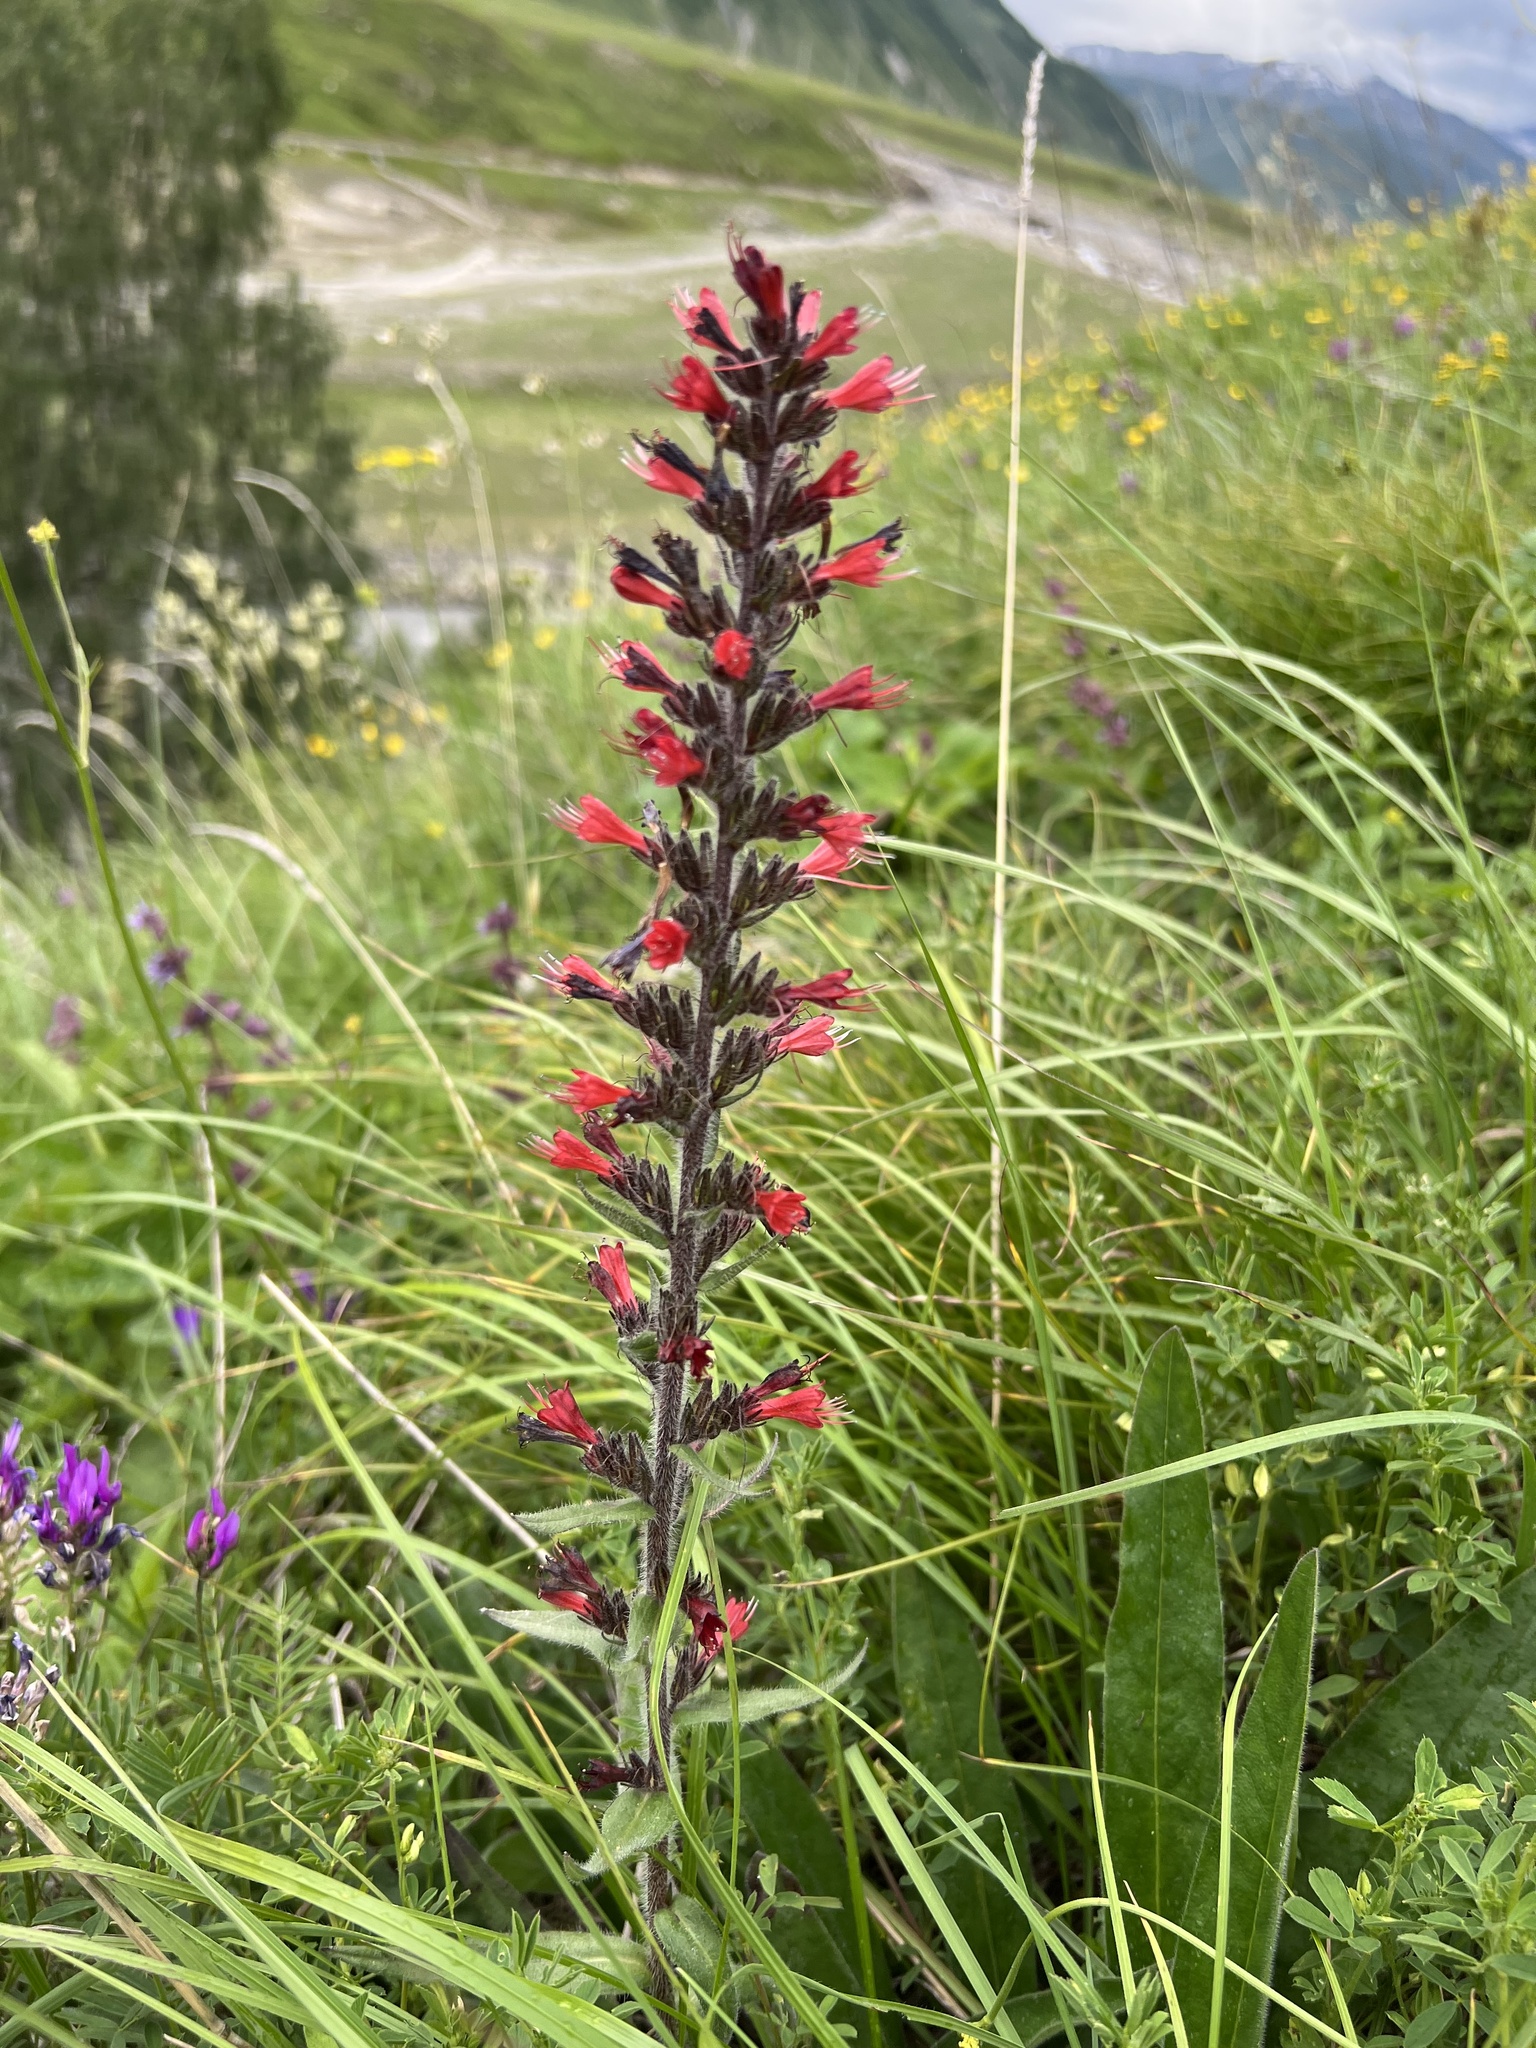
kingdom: Plantae
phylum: Tracheophyta
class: Magnoliopsida
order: Boraginales
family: Boraginaceae
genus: Pontechium
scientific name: Pontechium maculatum
